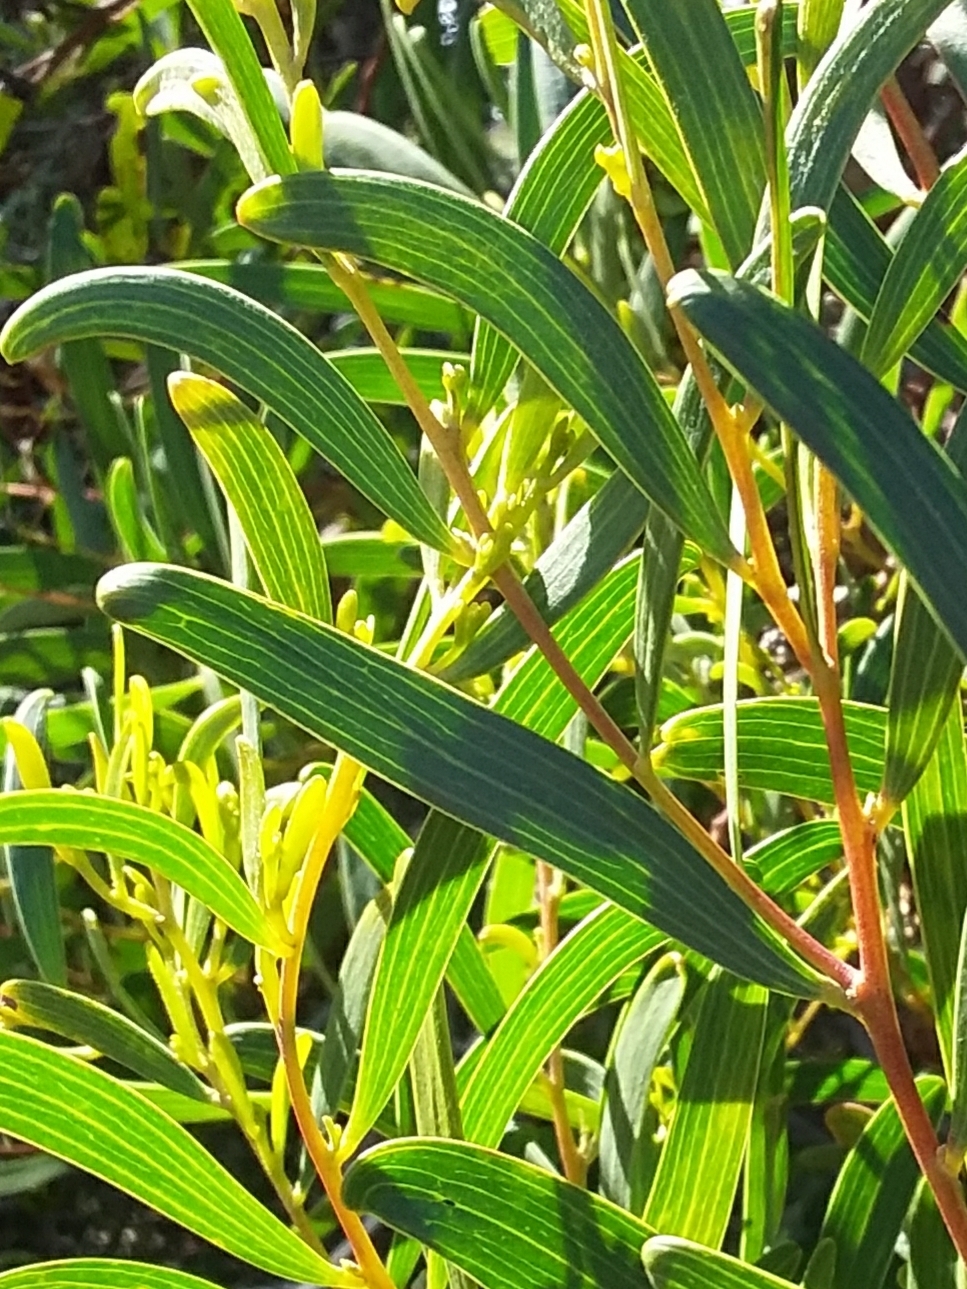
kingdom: Plantae
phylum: Tracheophyta
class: Magnoliopsida
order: Fabales
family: Fabaceae
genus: Acacia
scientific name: Acacia cyclops
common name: Coastal wattle
